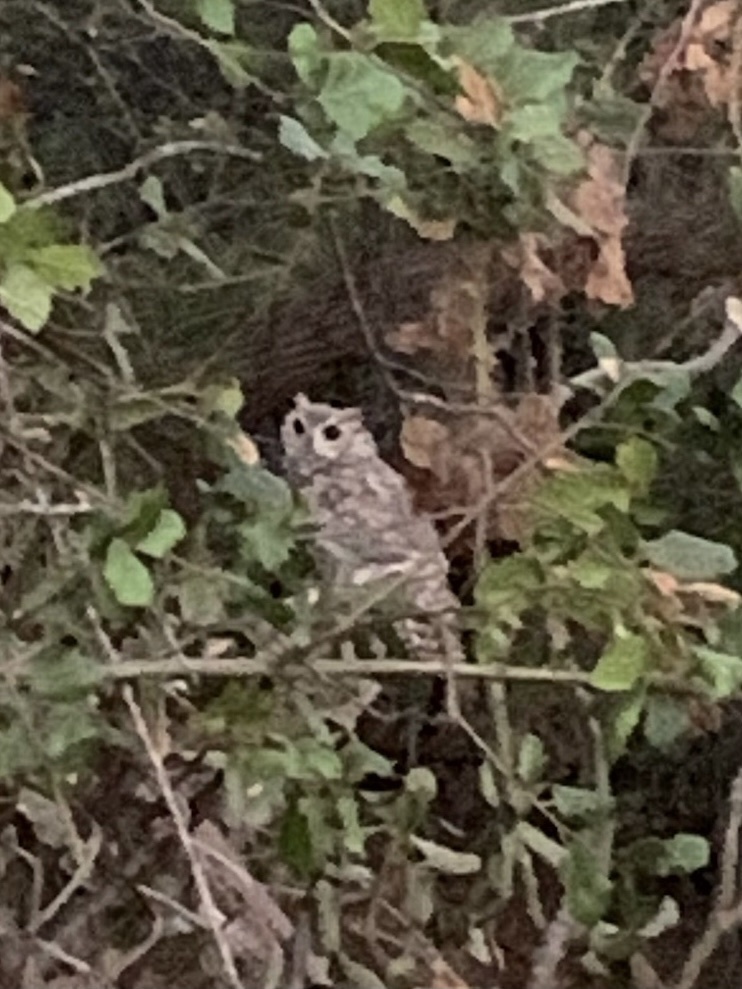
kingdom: Animalia
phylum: Chordata
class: Aves
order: Strigiformes
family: Strigidae
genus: Bubo
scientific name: Bubo virginianus
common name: Great horned owl
